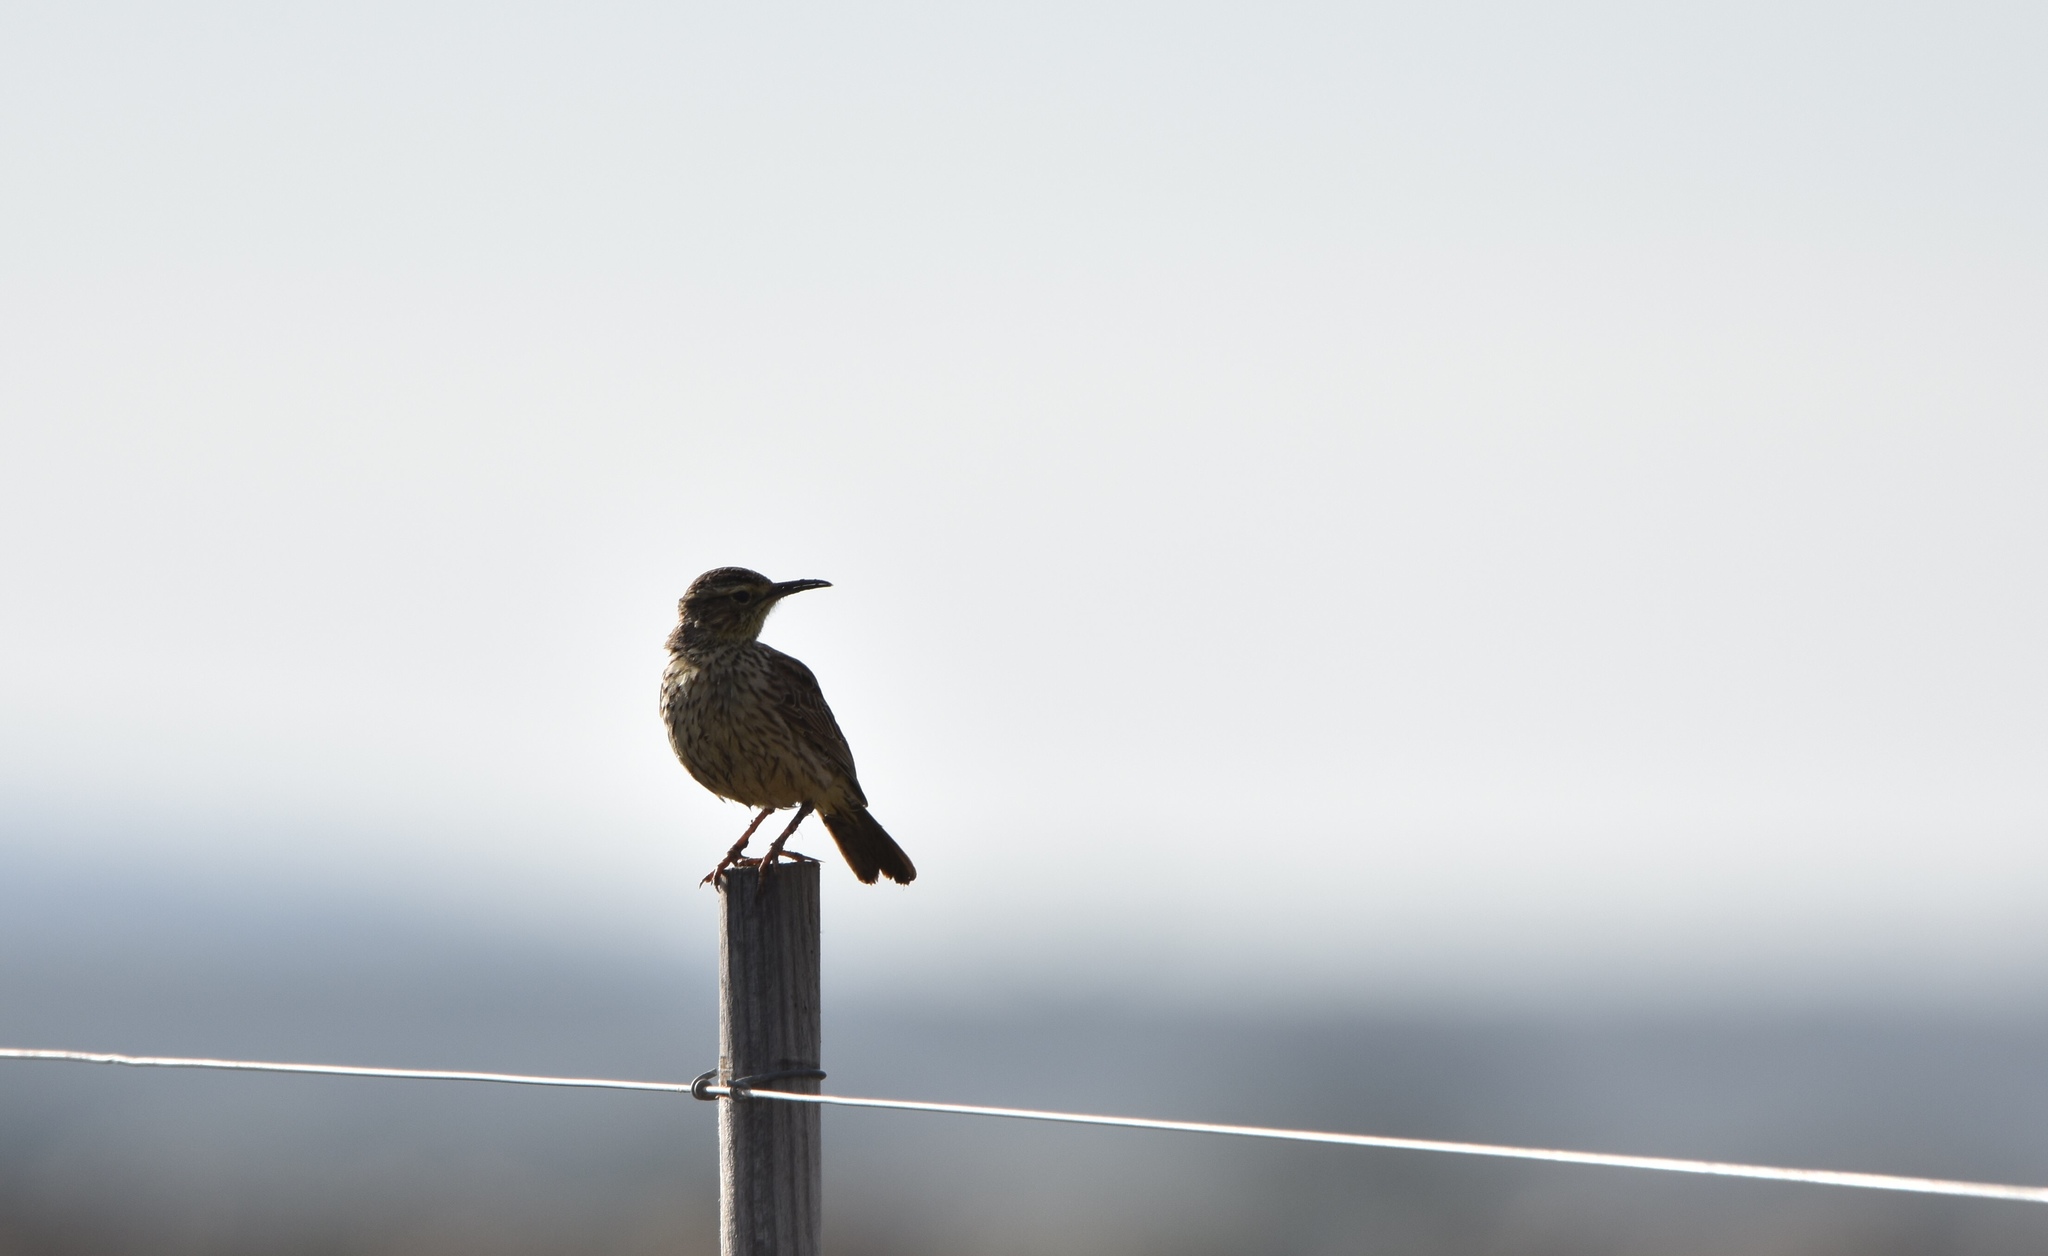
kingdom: Animalia
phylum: Chordata
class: Aves
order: Passeriformes
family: Alaudidae
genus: Certhilauda
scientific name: Certhilauda curvirostris
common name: Cape long-billed lark
